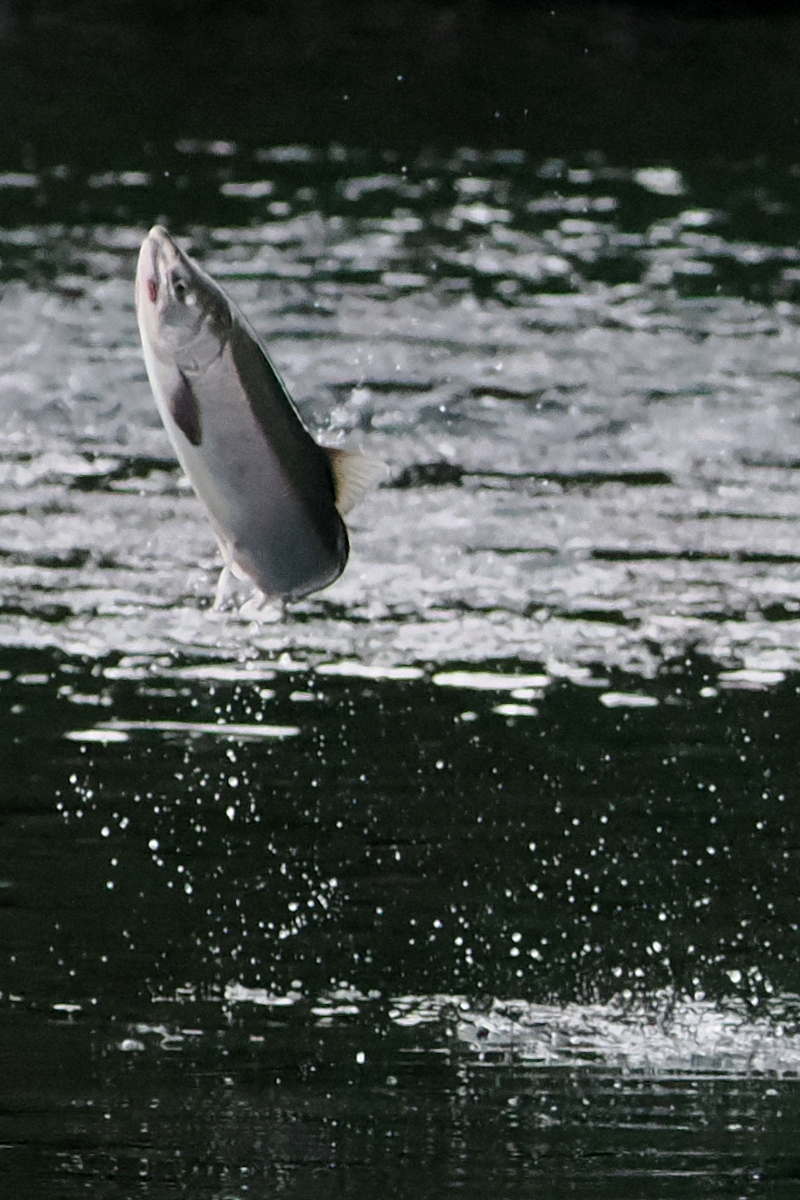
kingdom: Animalia
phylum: Chordata
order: Salmoniformes
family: Salmonidae
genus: Oncorhynchus
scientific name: Oncorhynchus kisutch
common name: Coho salmon
